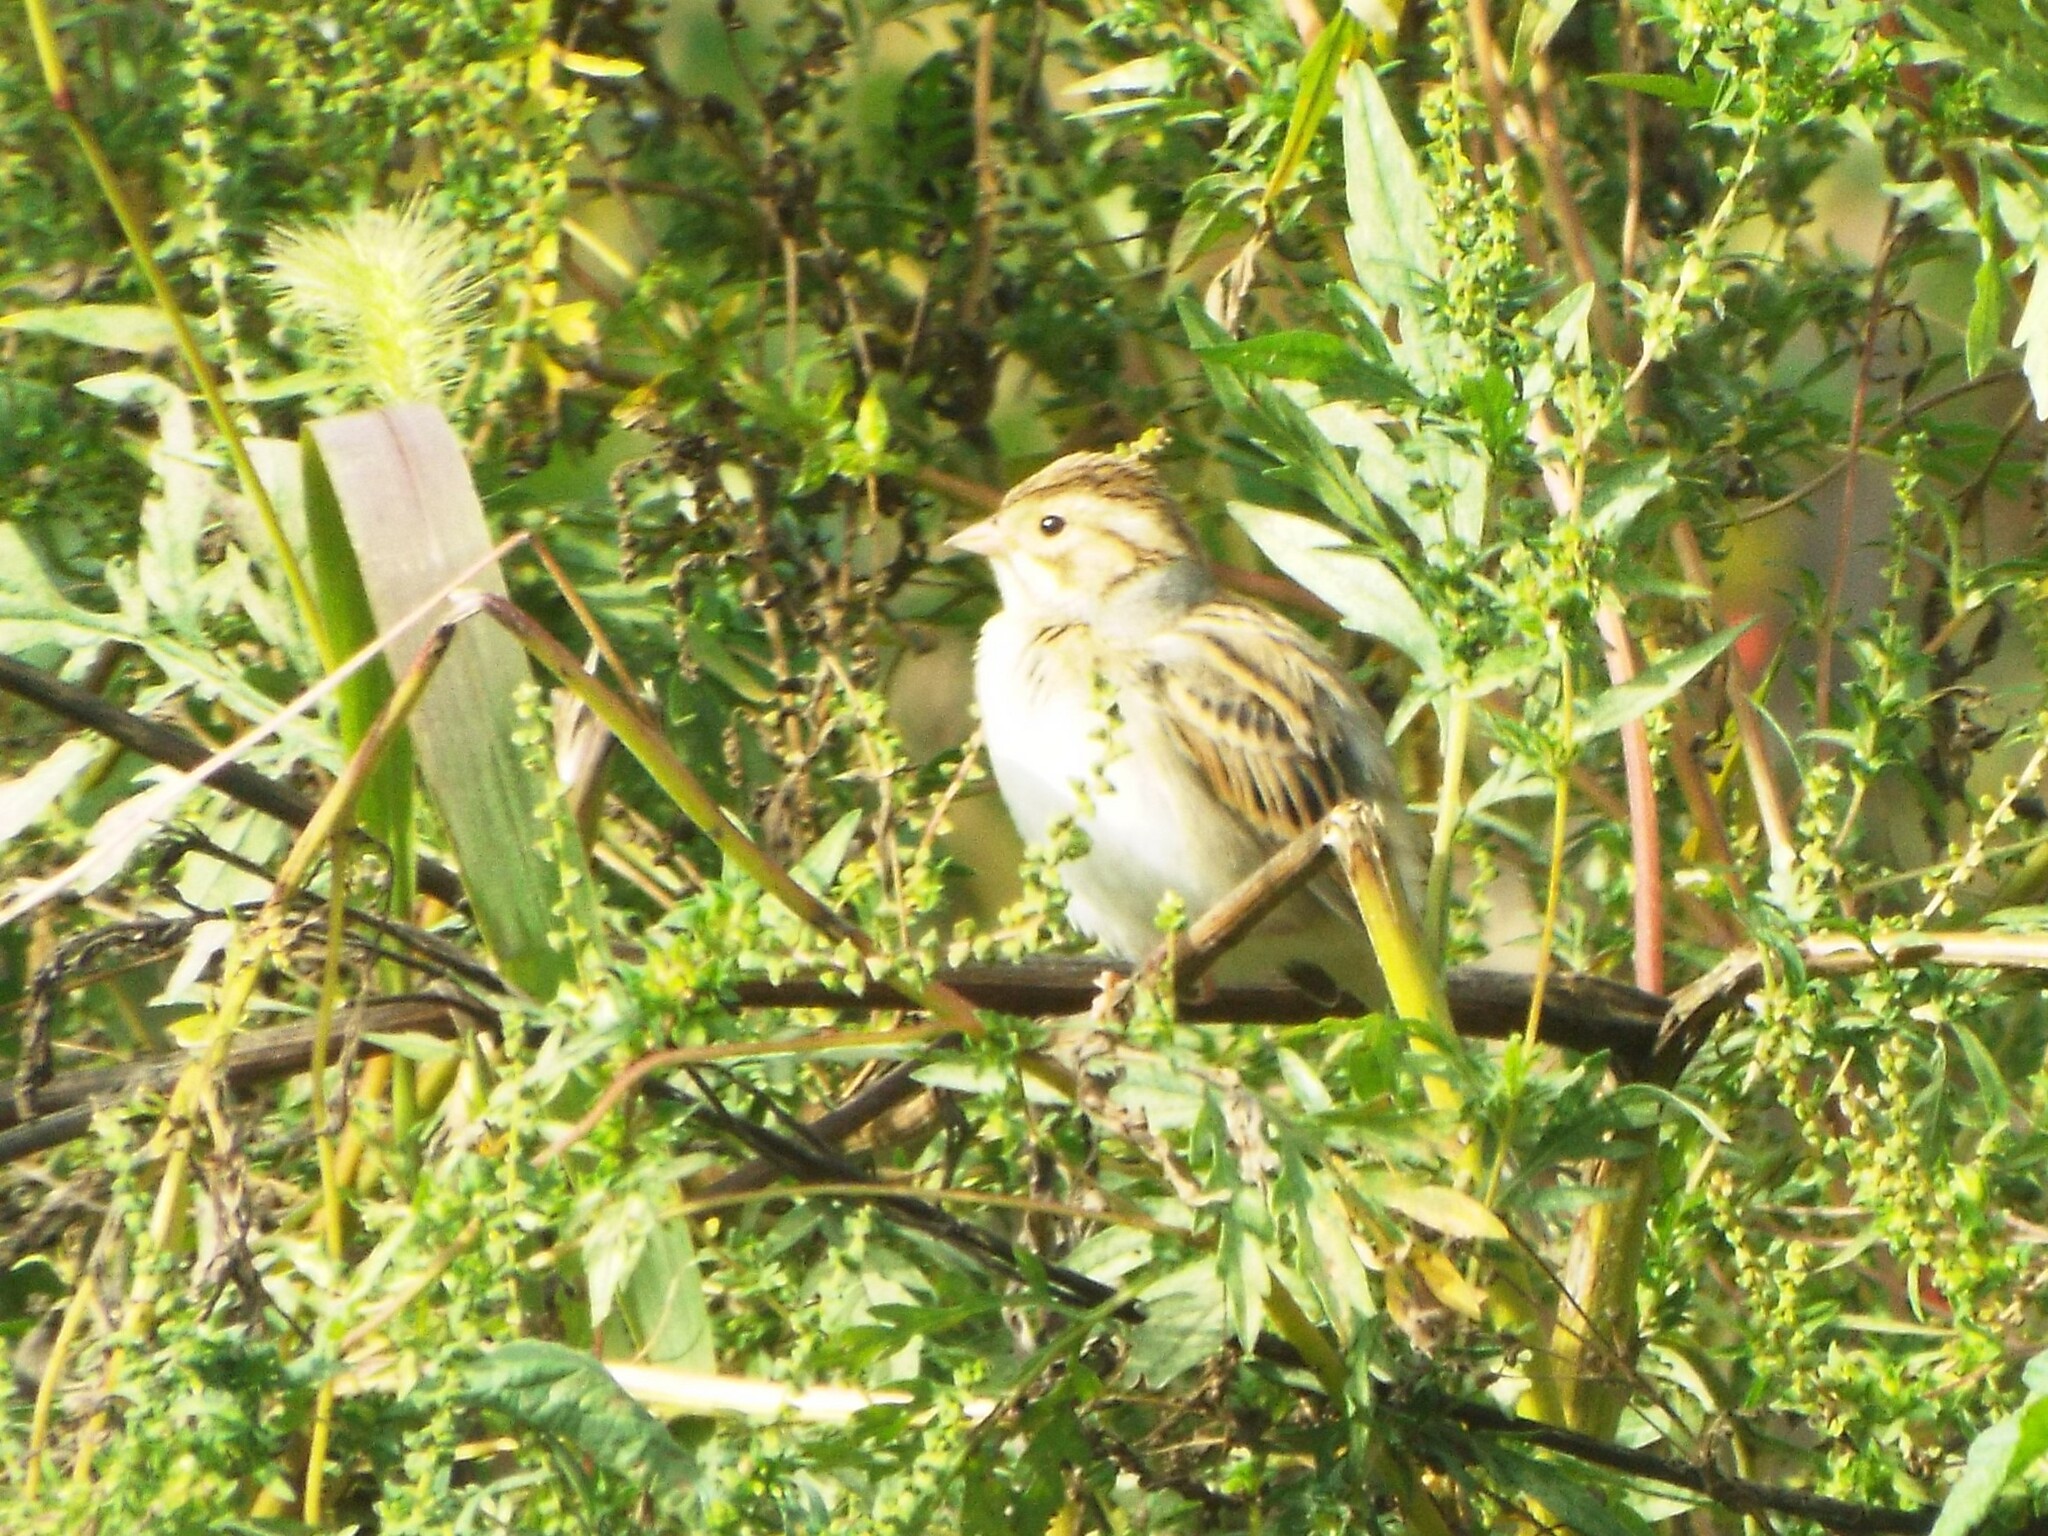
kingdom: Animalia
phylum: Chordata
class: Aves
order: Passeriformes
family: Passerellidae
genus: Spizella
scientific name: Spizella pallida
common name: Clay-colored sparrow
